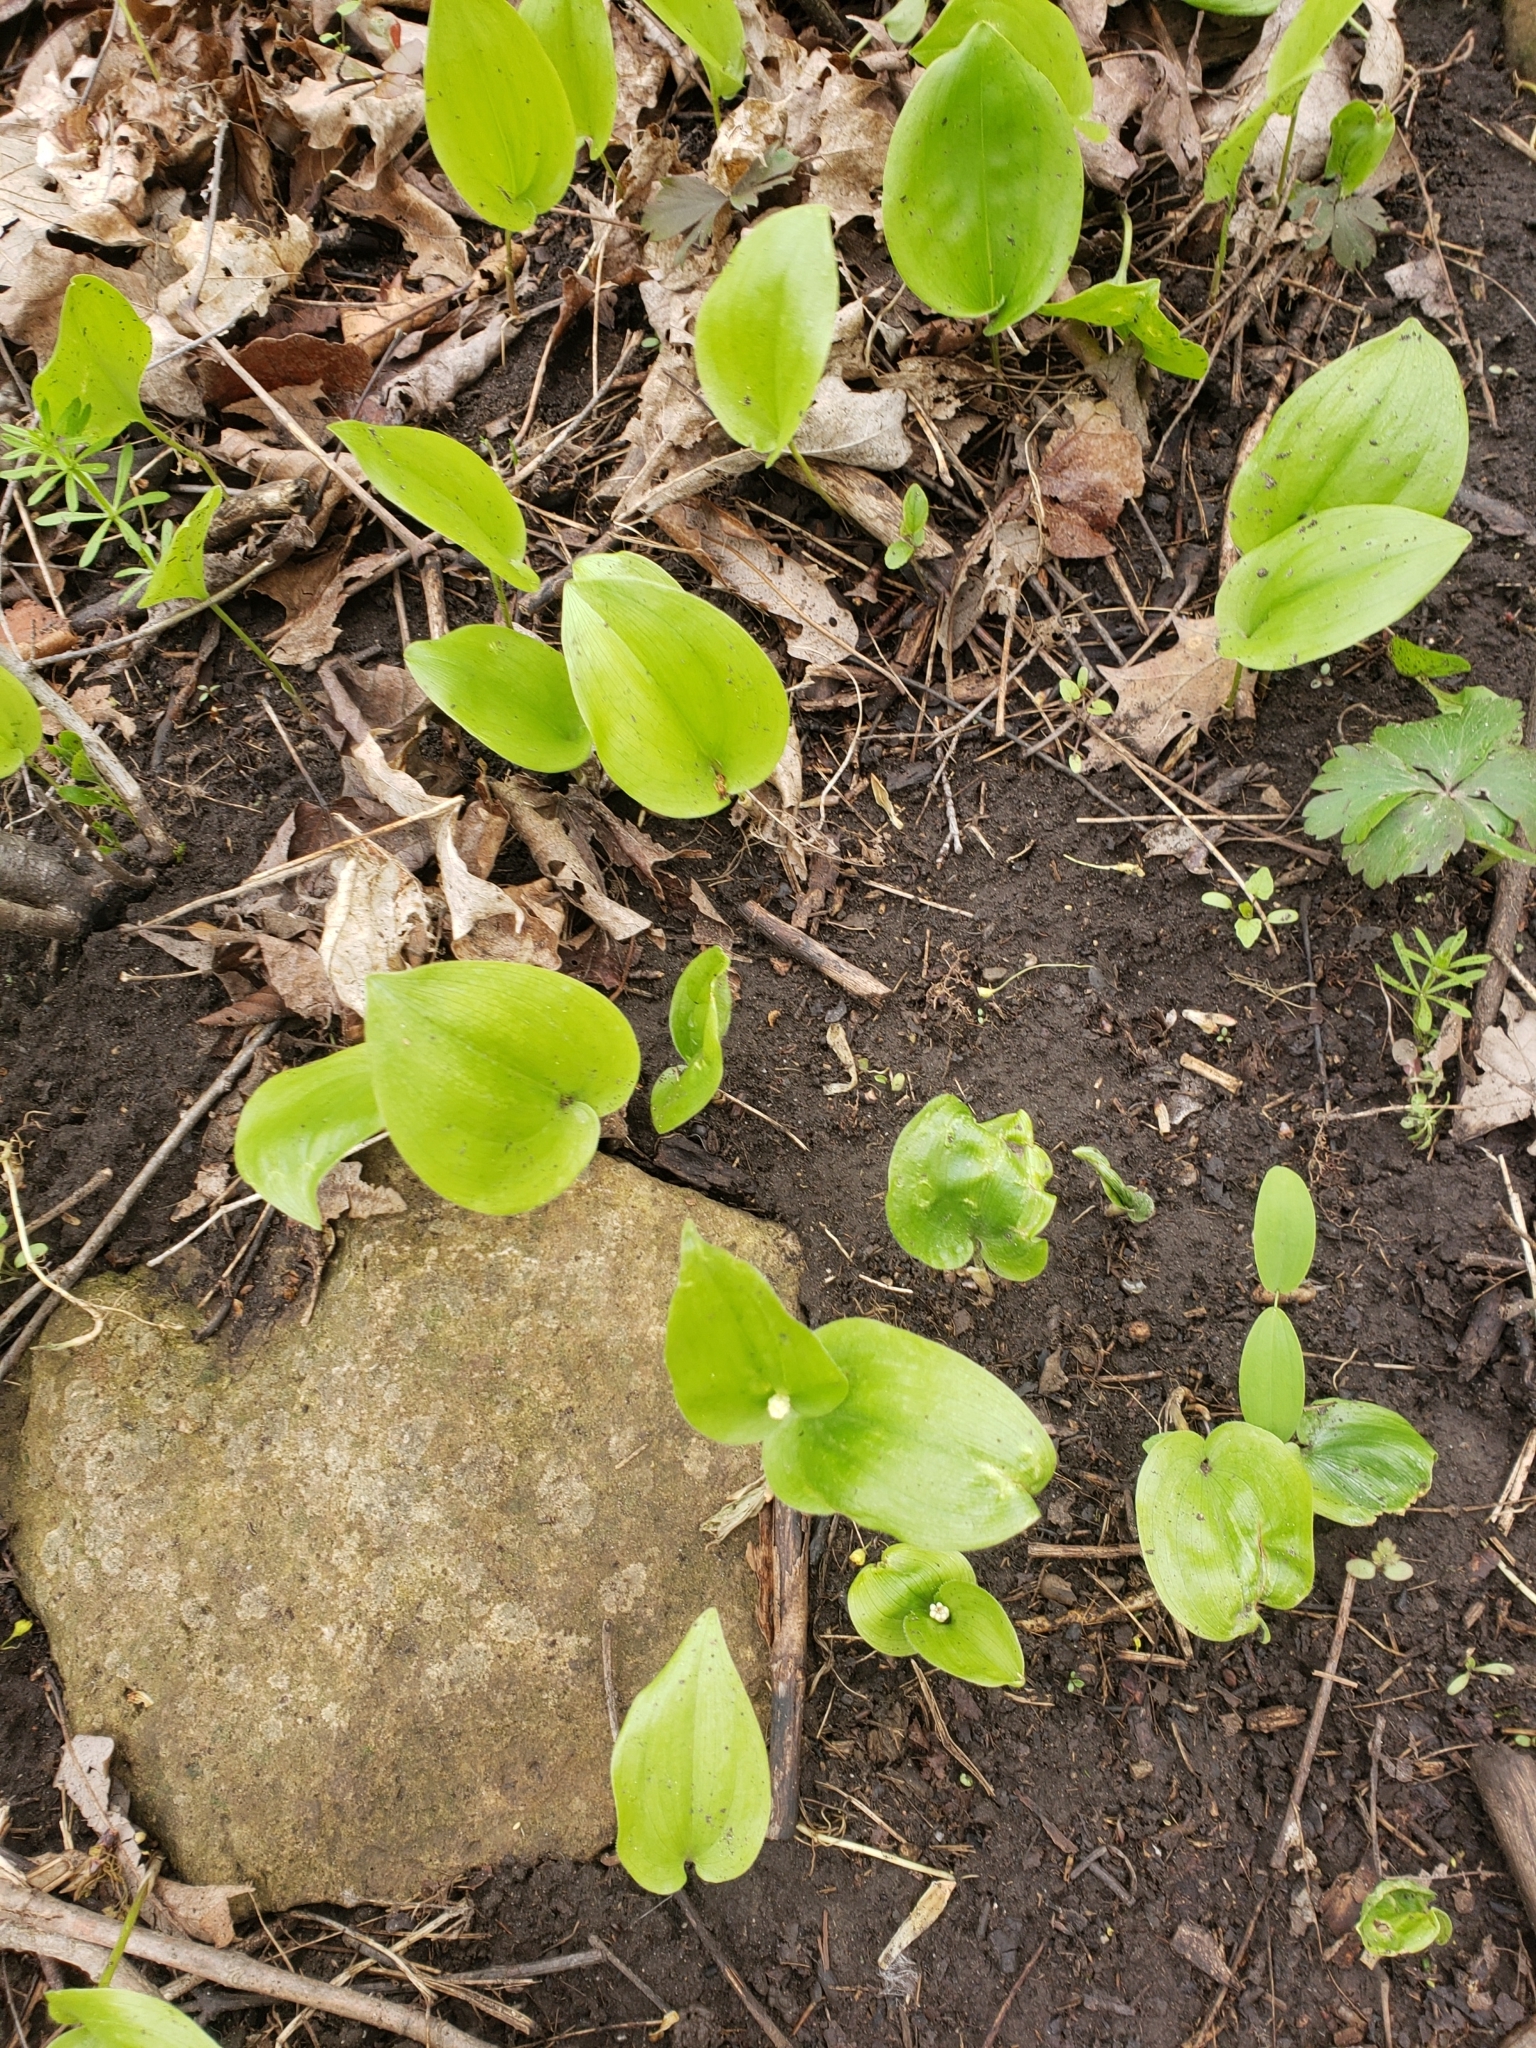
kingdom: Plantae
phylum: Tracheophyta
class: Liliopsida
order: Asparagales
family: Asparagaceae
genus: Maianthemum
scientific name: Maianthemum canadense
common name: False lily-of-the-valley
